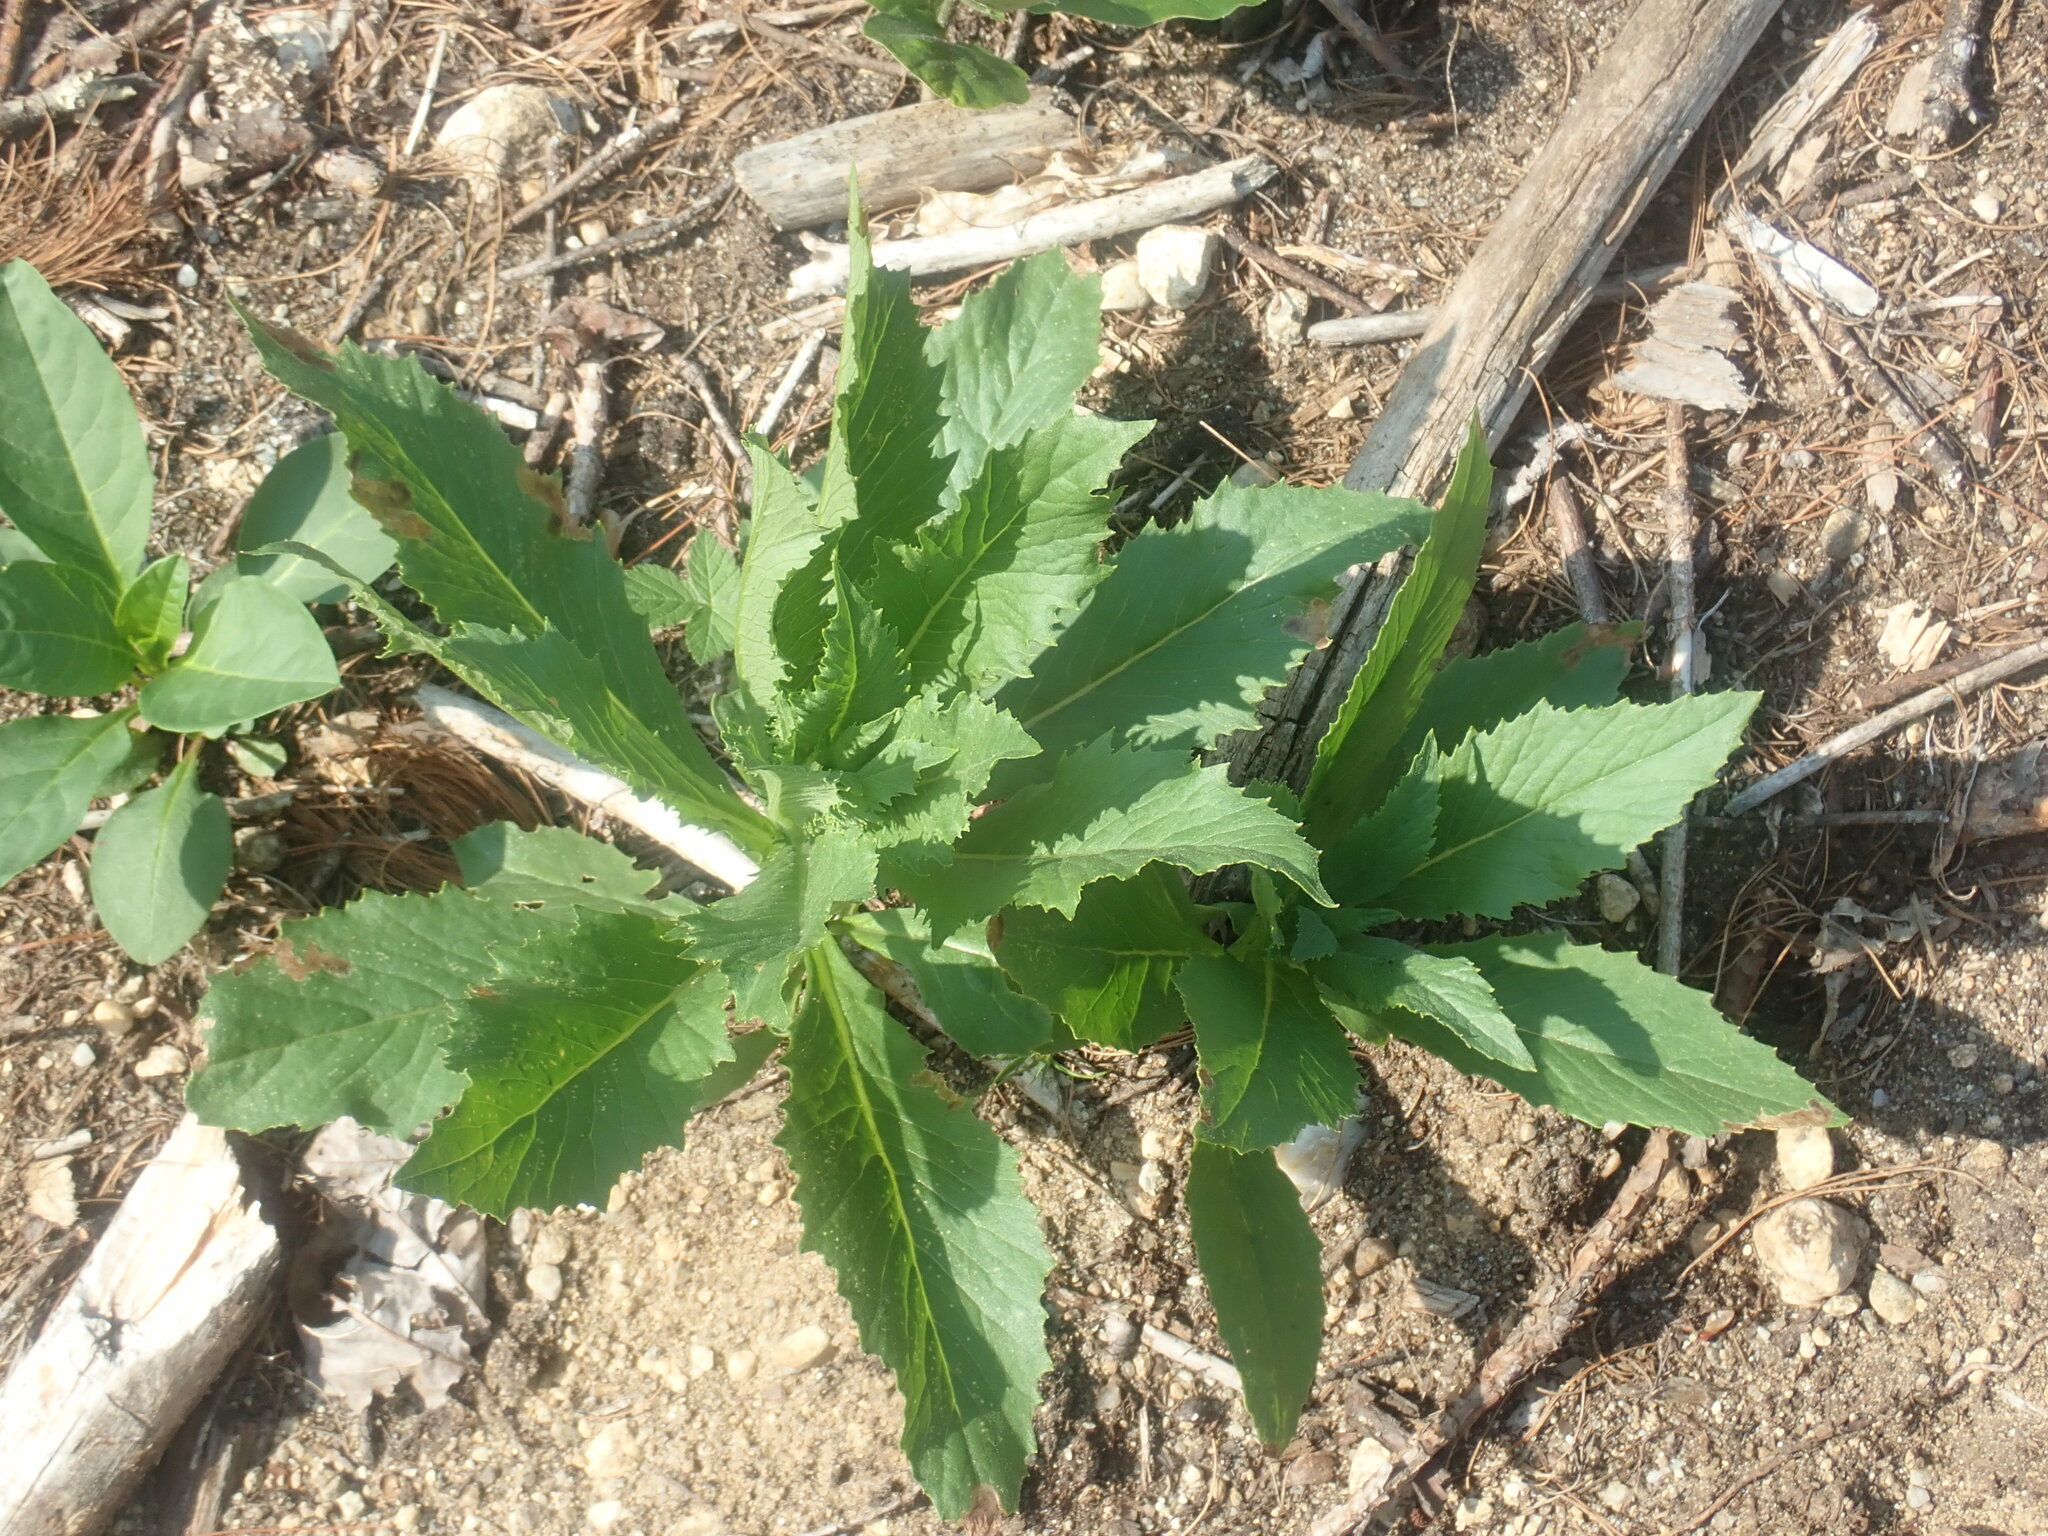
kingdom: Plantae
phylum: Tracheophyta
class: Magnoliopsida
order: Asterales
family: Asteraceae
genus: Erechtites
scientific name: Erechtites hieraciifolius
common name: American burnweed
